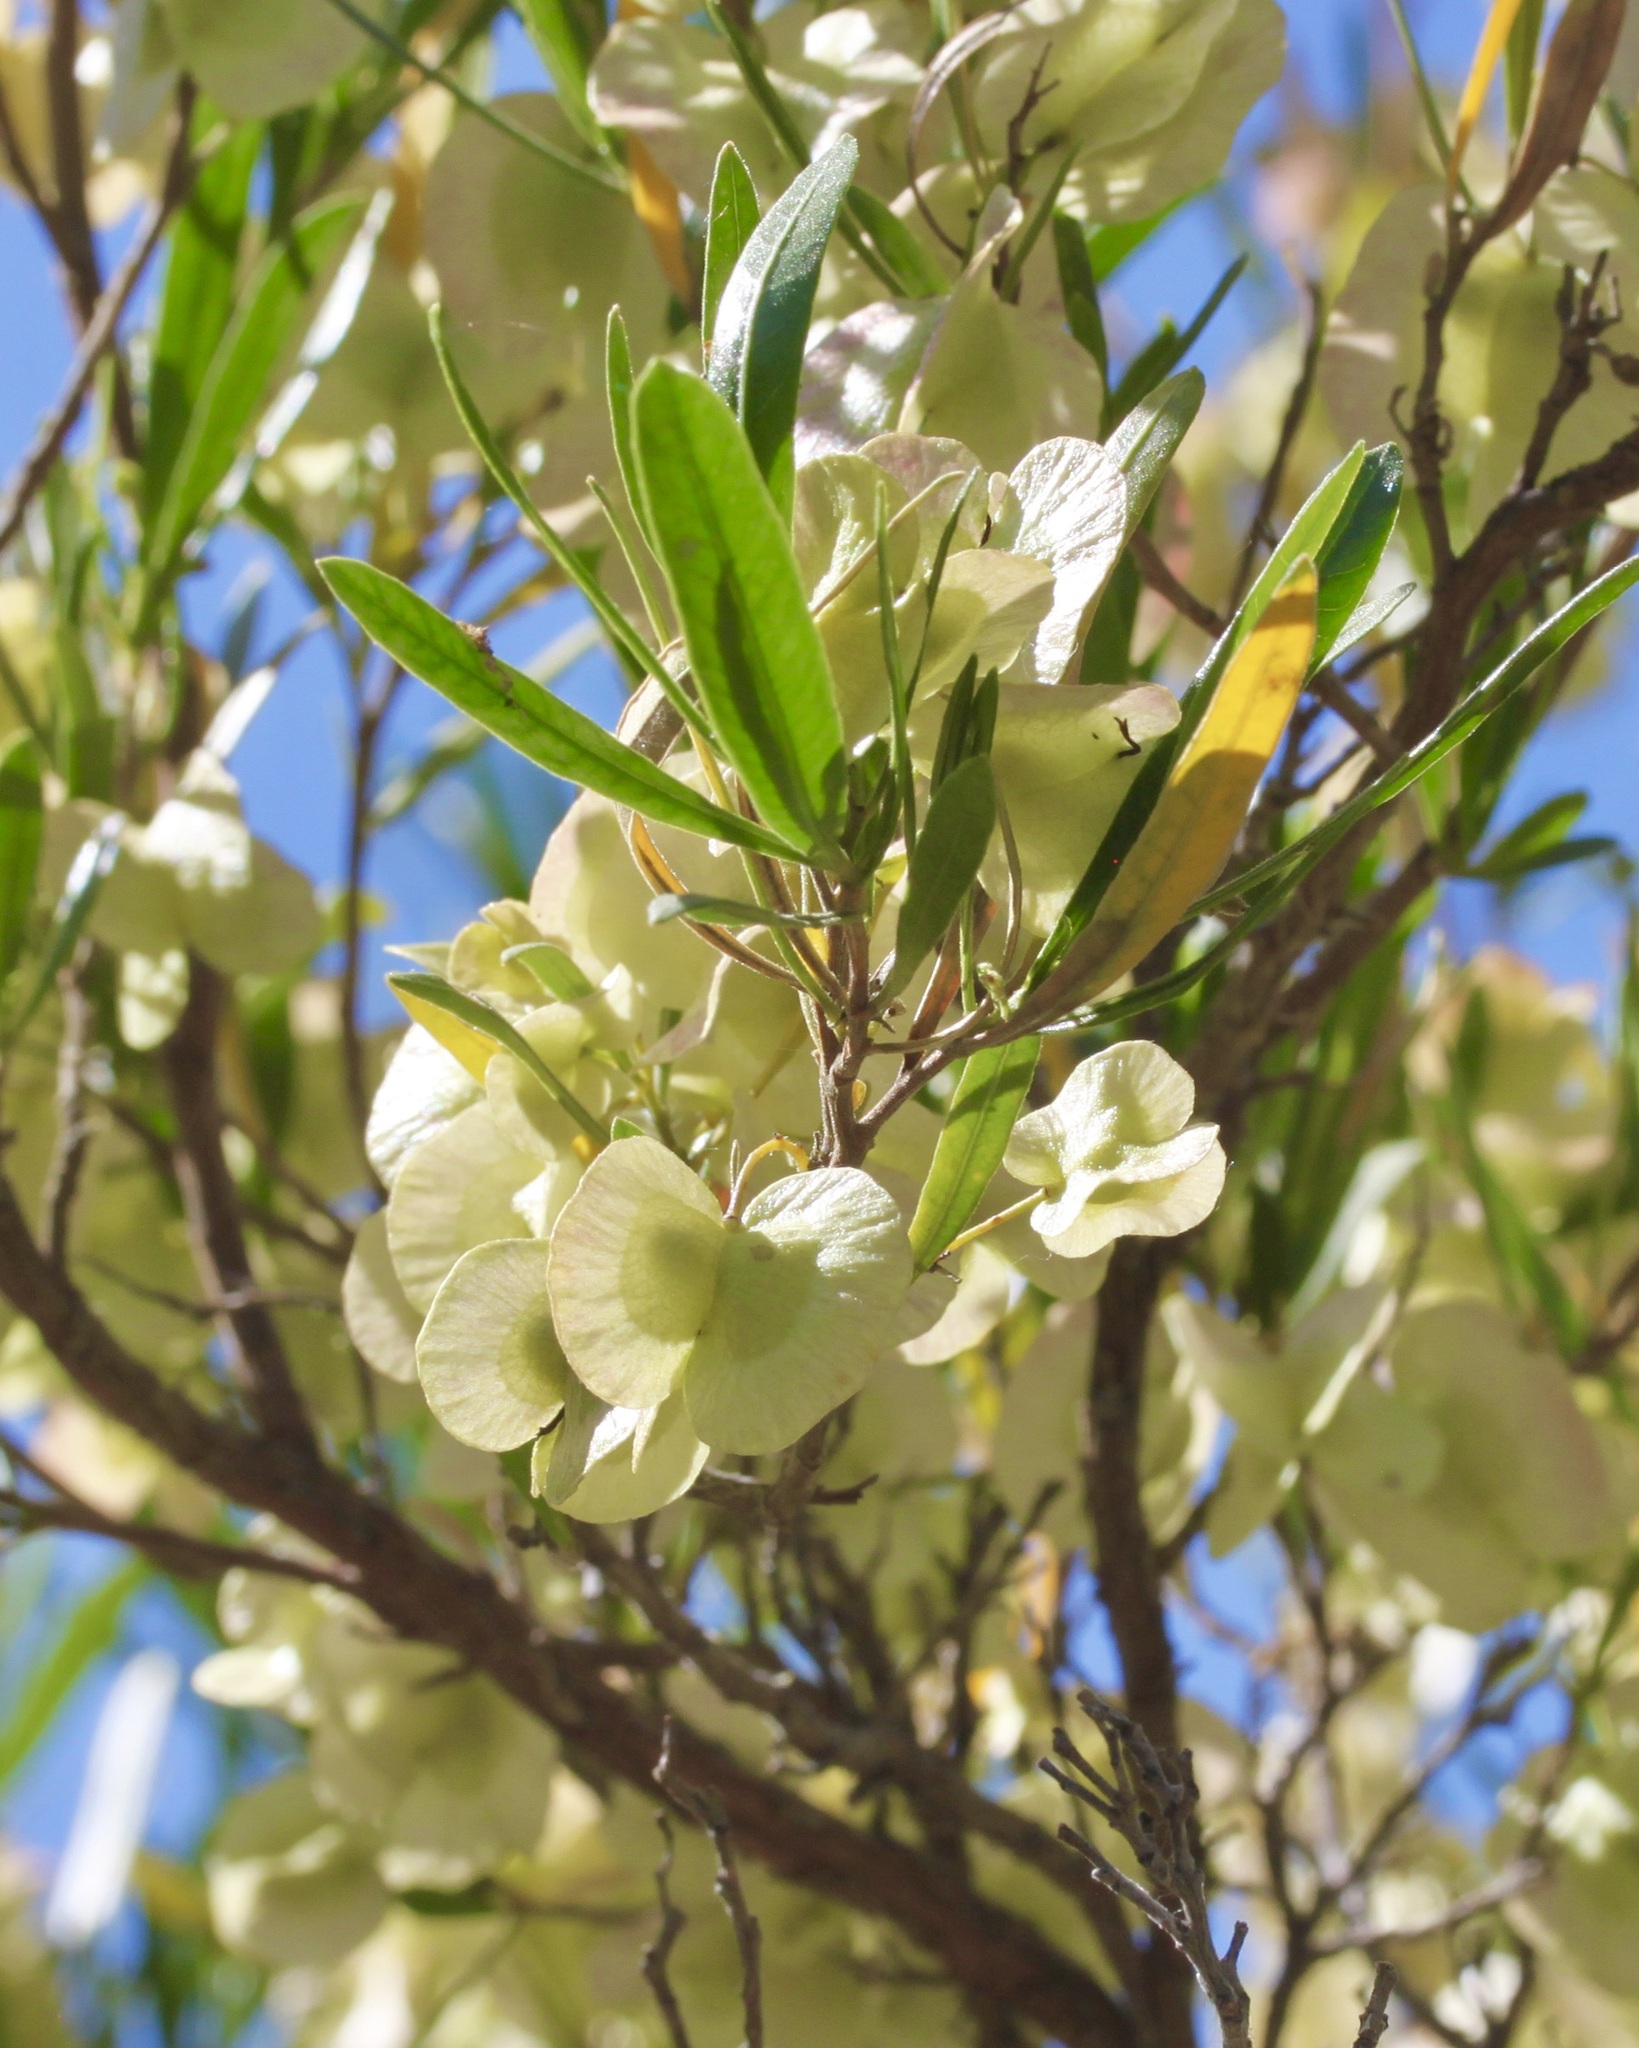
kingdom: Plantae
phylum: Tracheophyta
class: Magnoliopsida
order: Sapindales
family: Sapindaceae
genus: Dodonaea
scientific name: Dodonaea viscosa
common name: Hopbush
